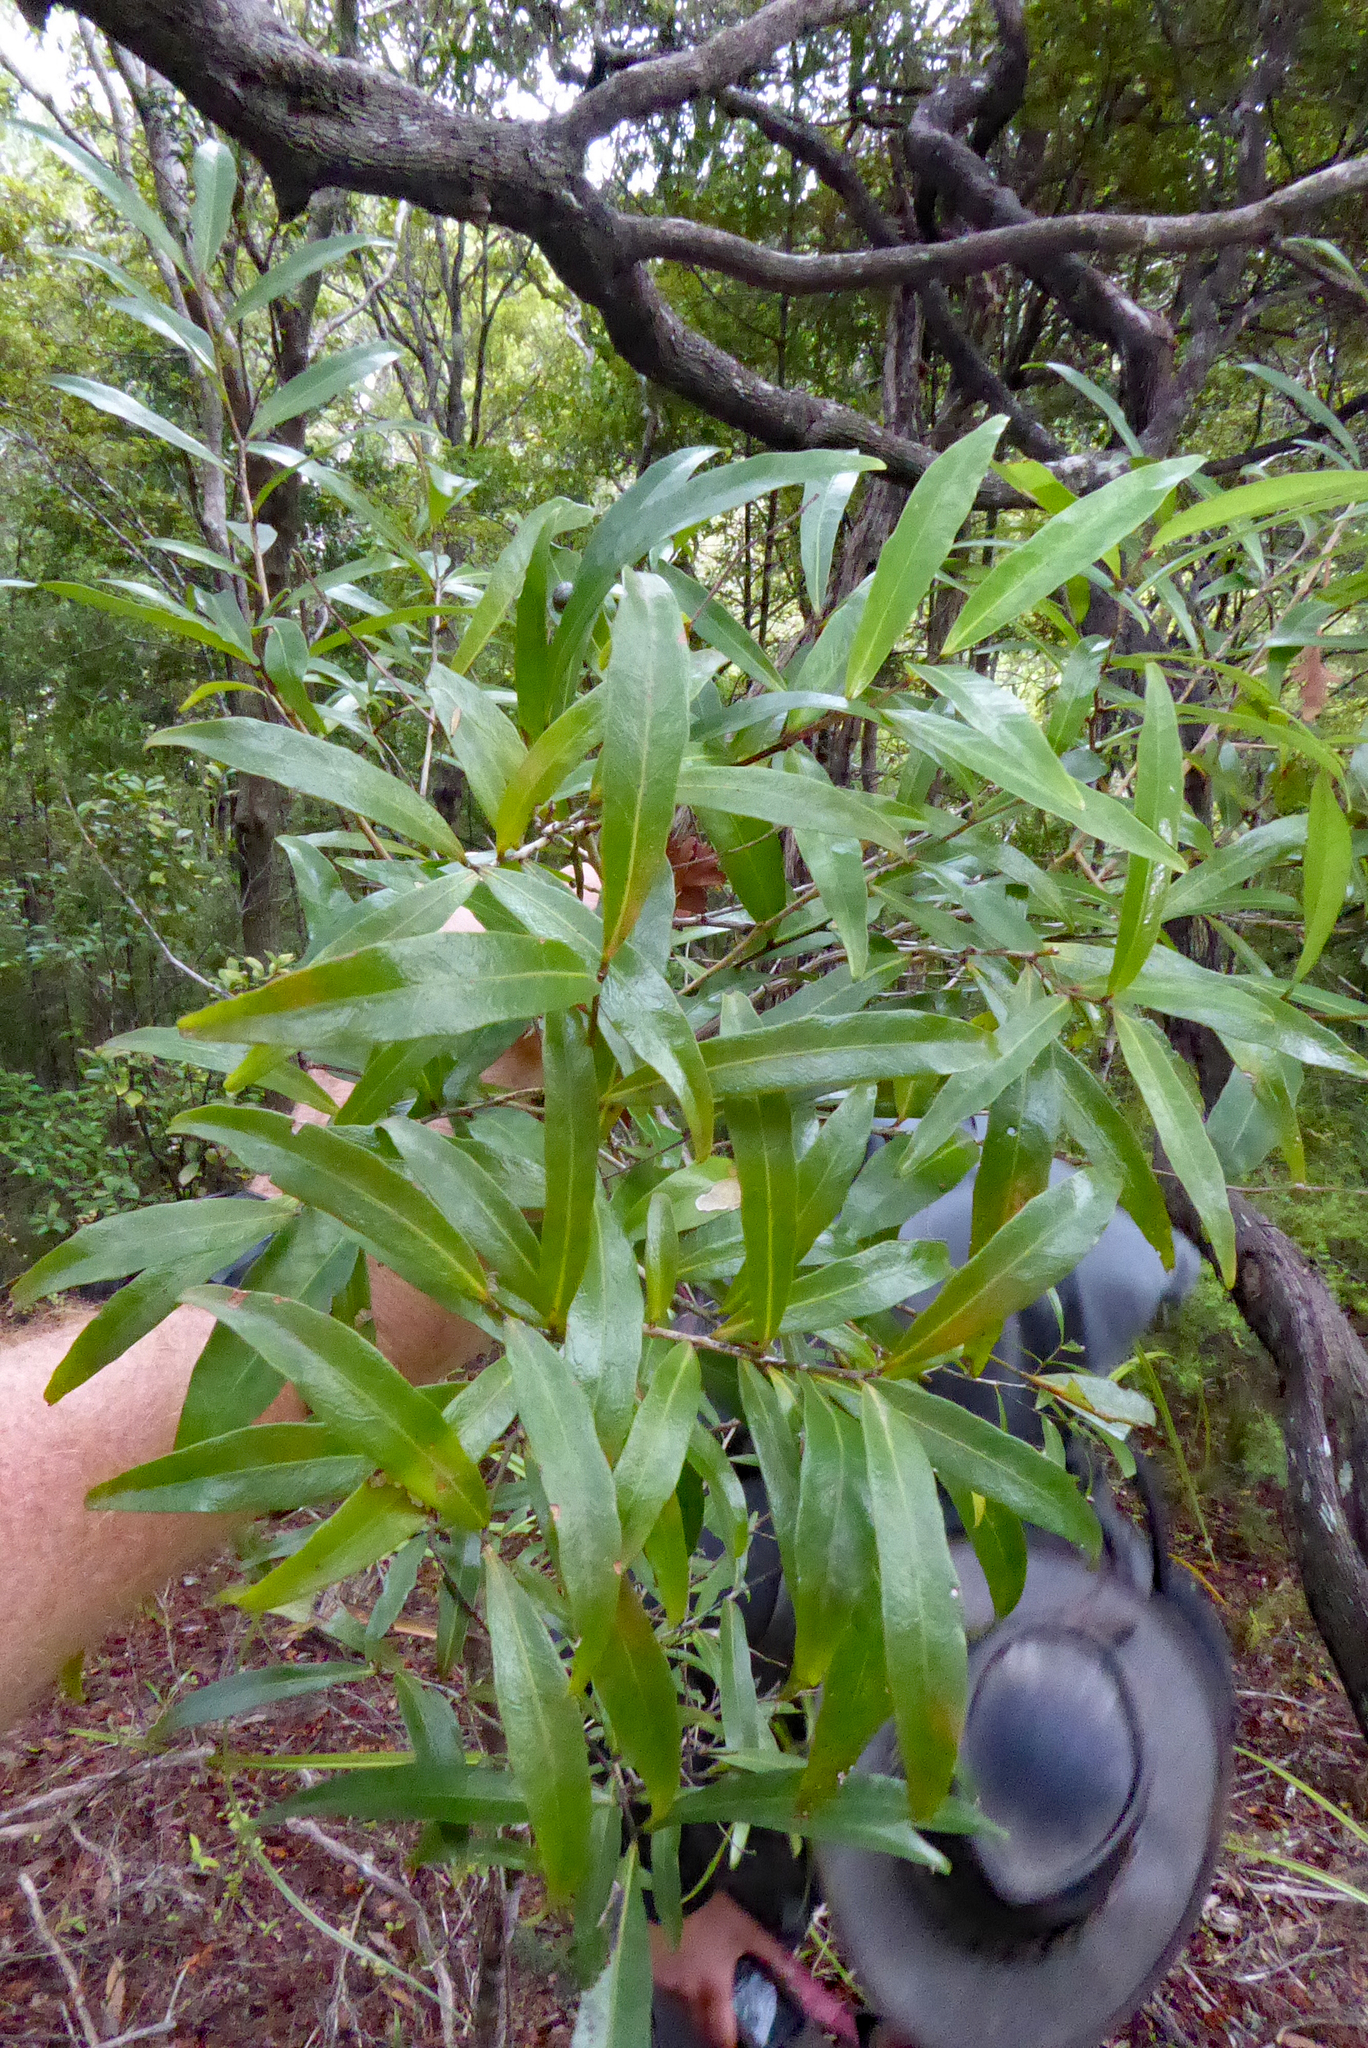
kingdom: Plantae
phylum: Tracheophyta
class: Magnoliopsida
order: Santalales
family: Nanodeaceae
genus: Mida
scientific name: Mida salicifolia
